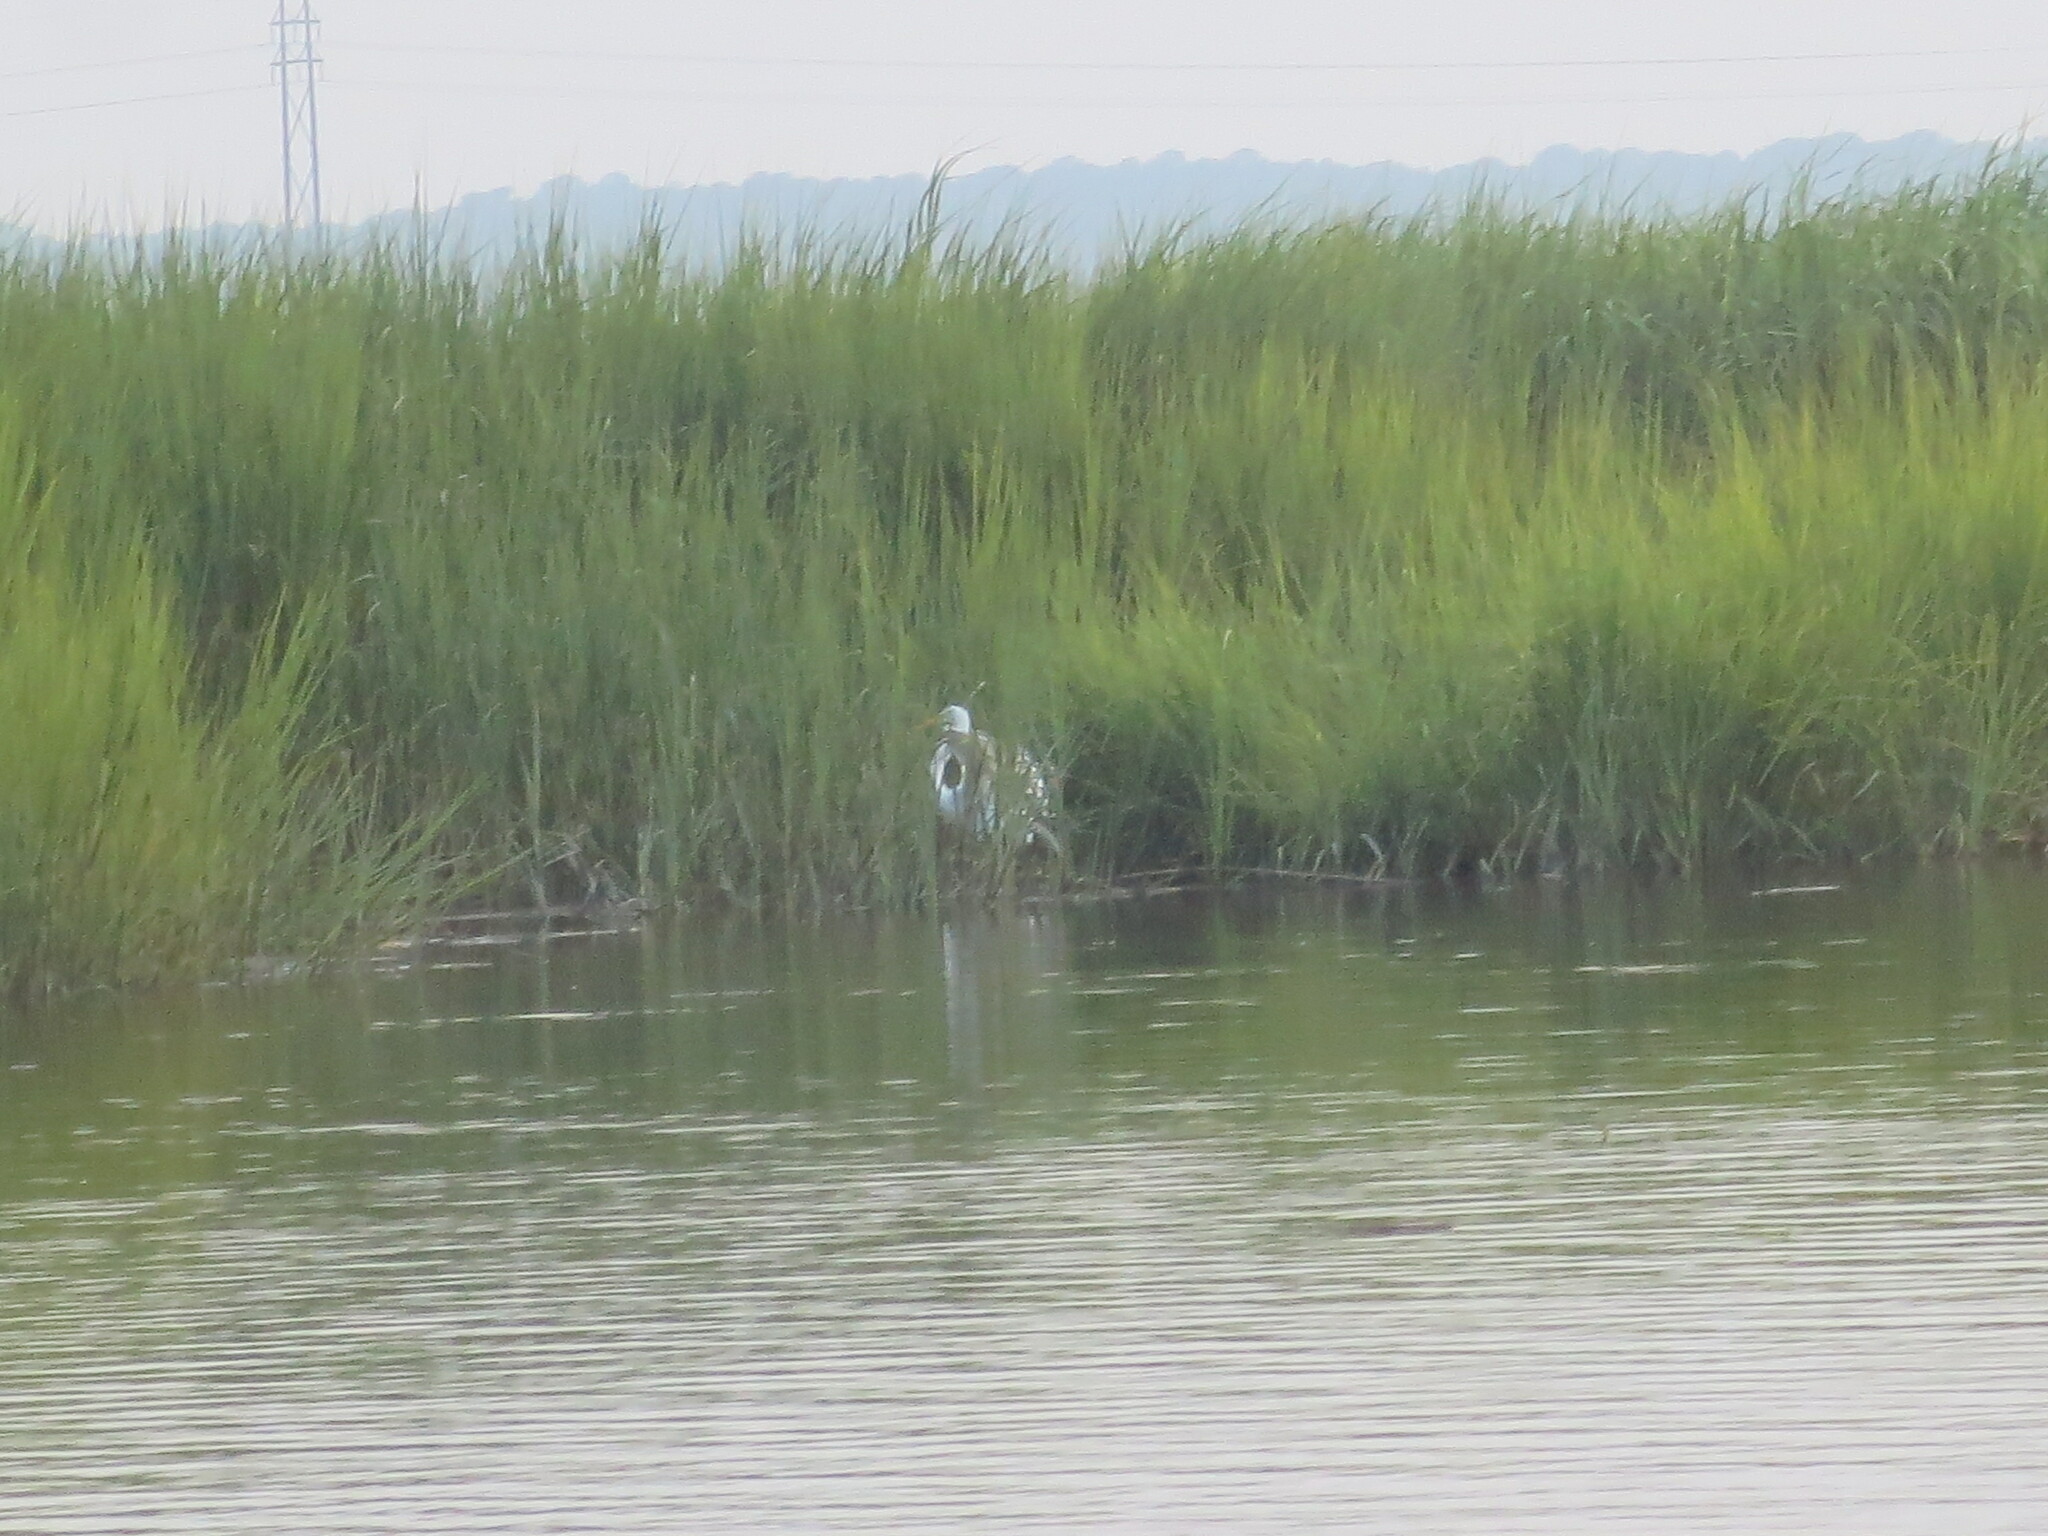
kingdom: Animalia
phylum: Chordata
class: Aves
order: Pelecaniformes
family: Ardeidae
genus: Ardea
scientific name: Ardea alba
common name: Great egret
